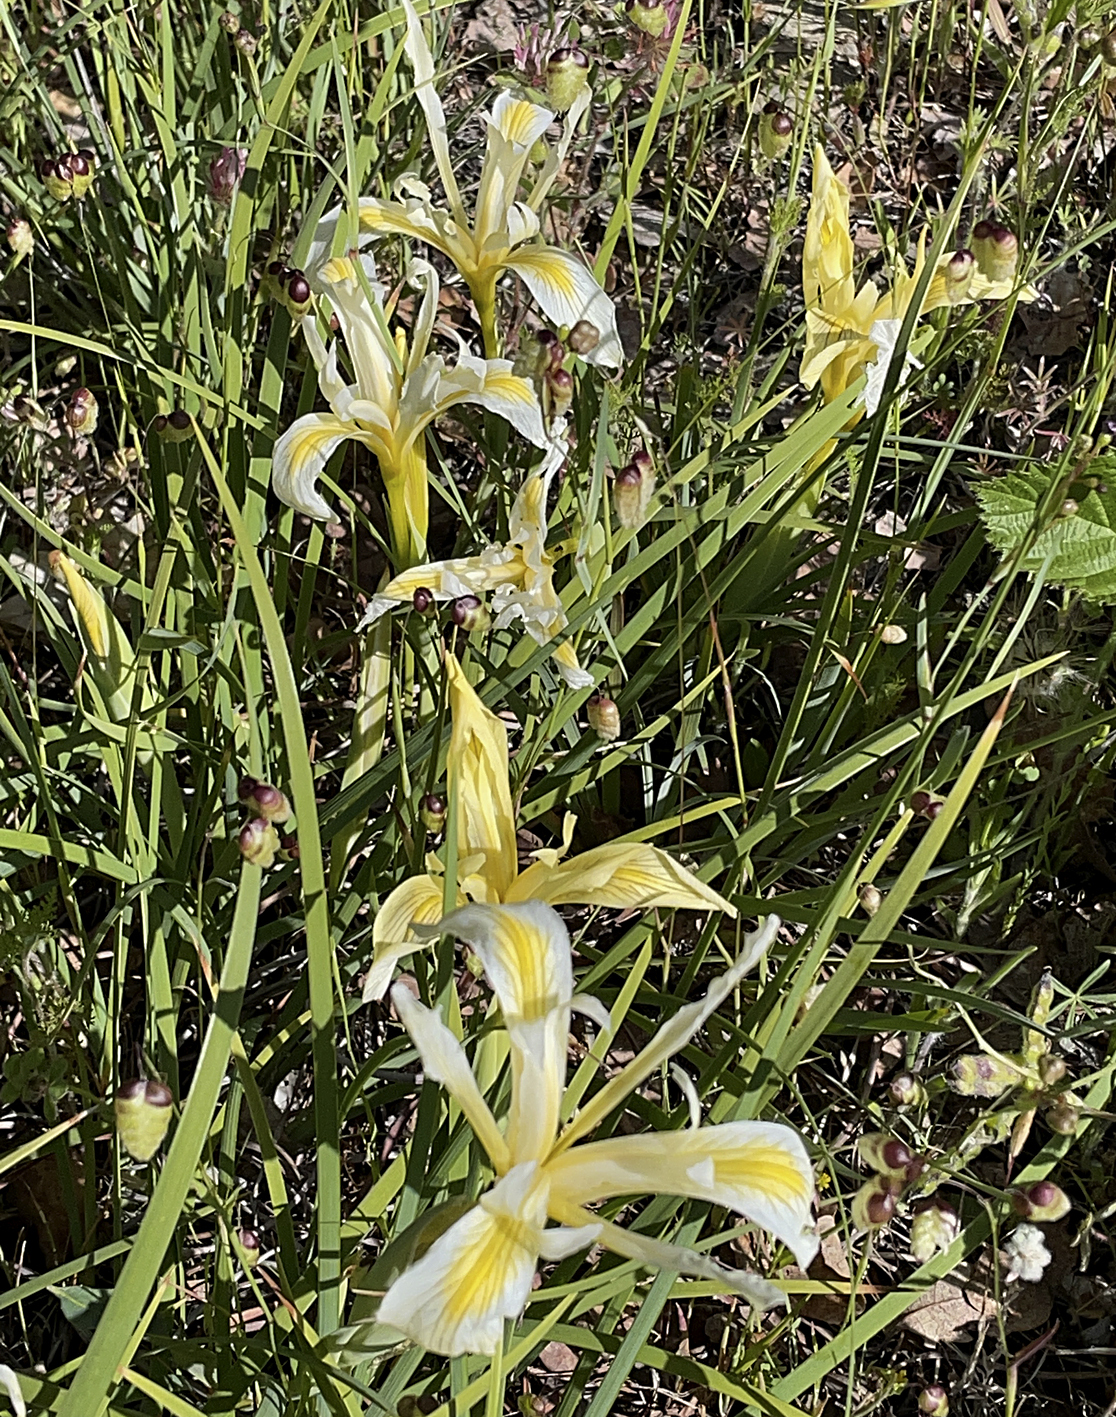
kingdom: Plantae
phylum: Tracheophyta
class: Liliopsida
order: Asparagales
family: Iridaceae
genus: Iris
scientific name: Iris macrosiphon
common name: Ground iris
